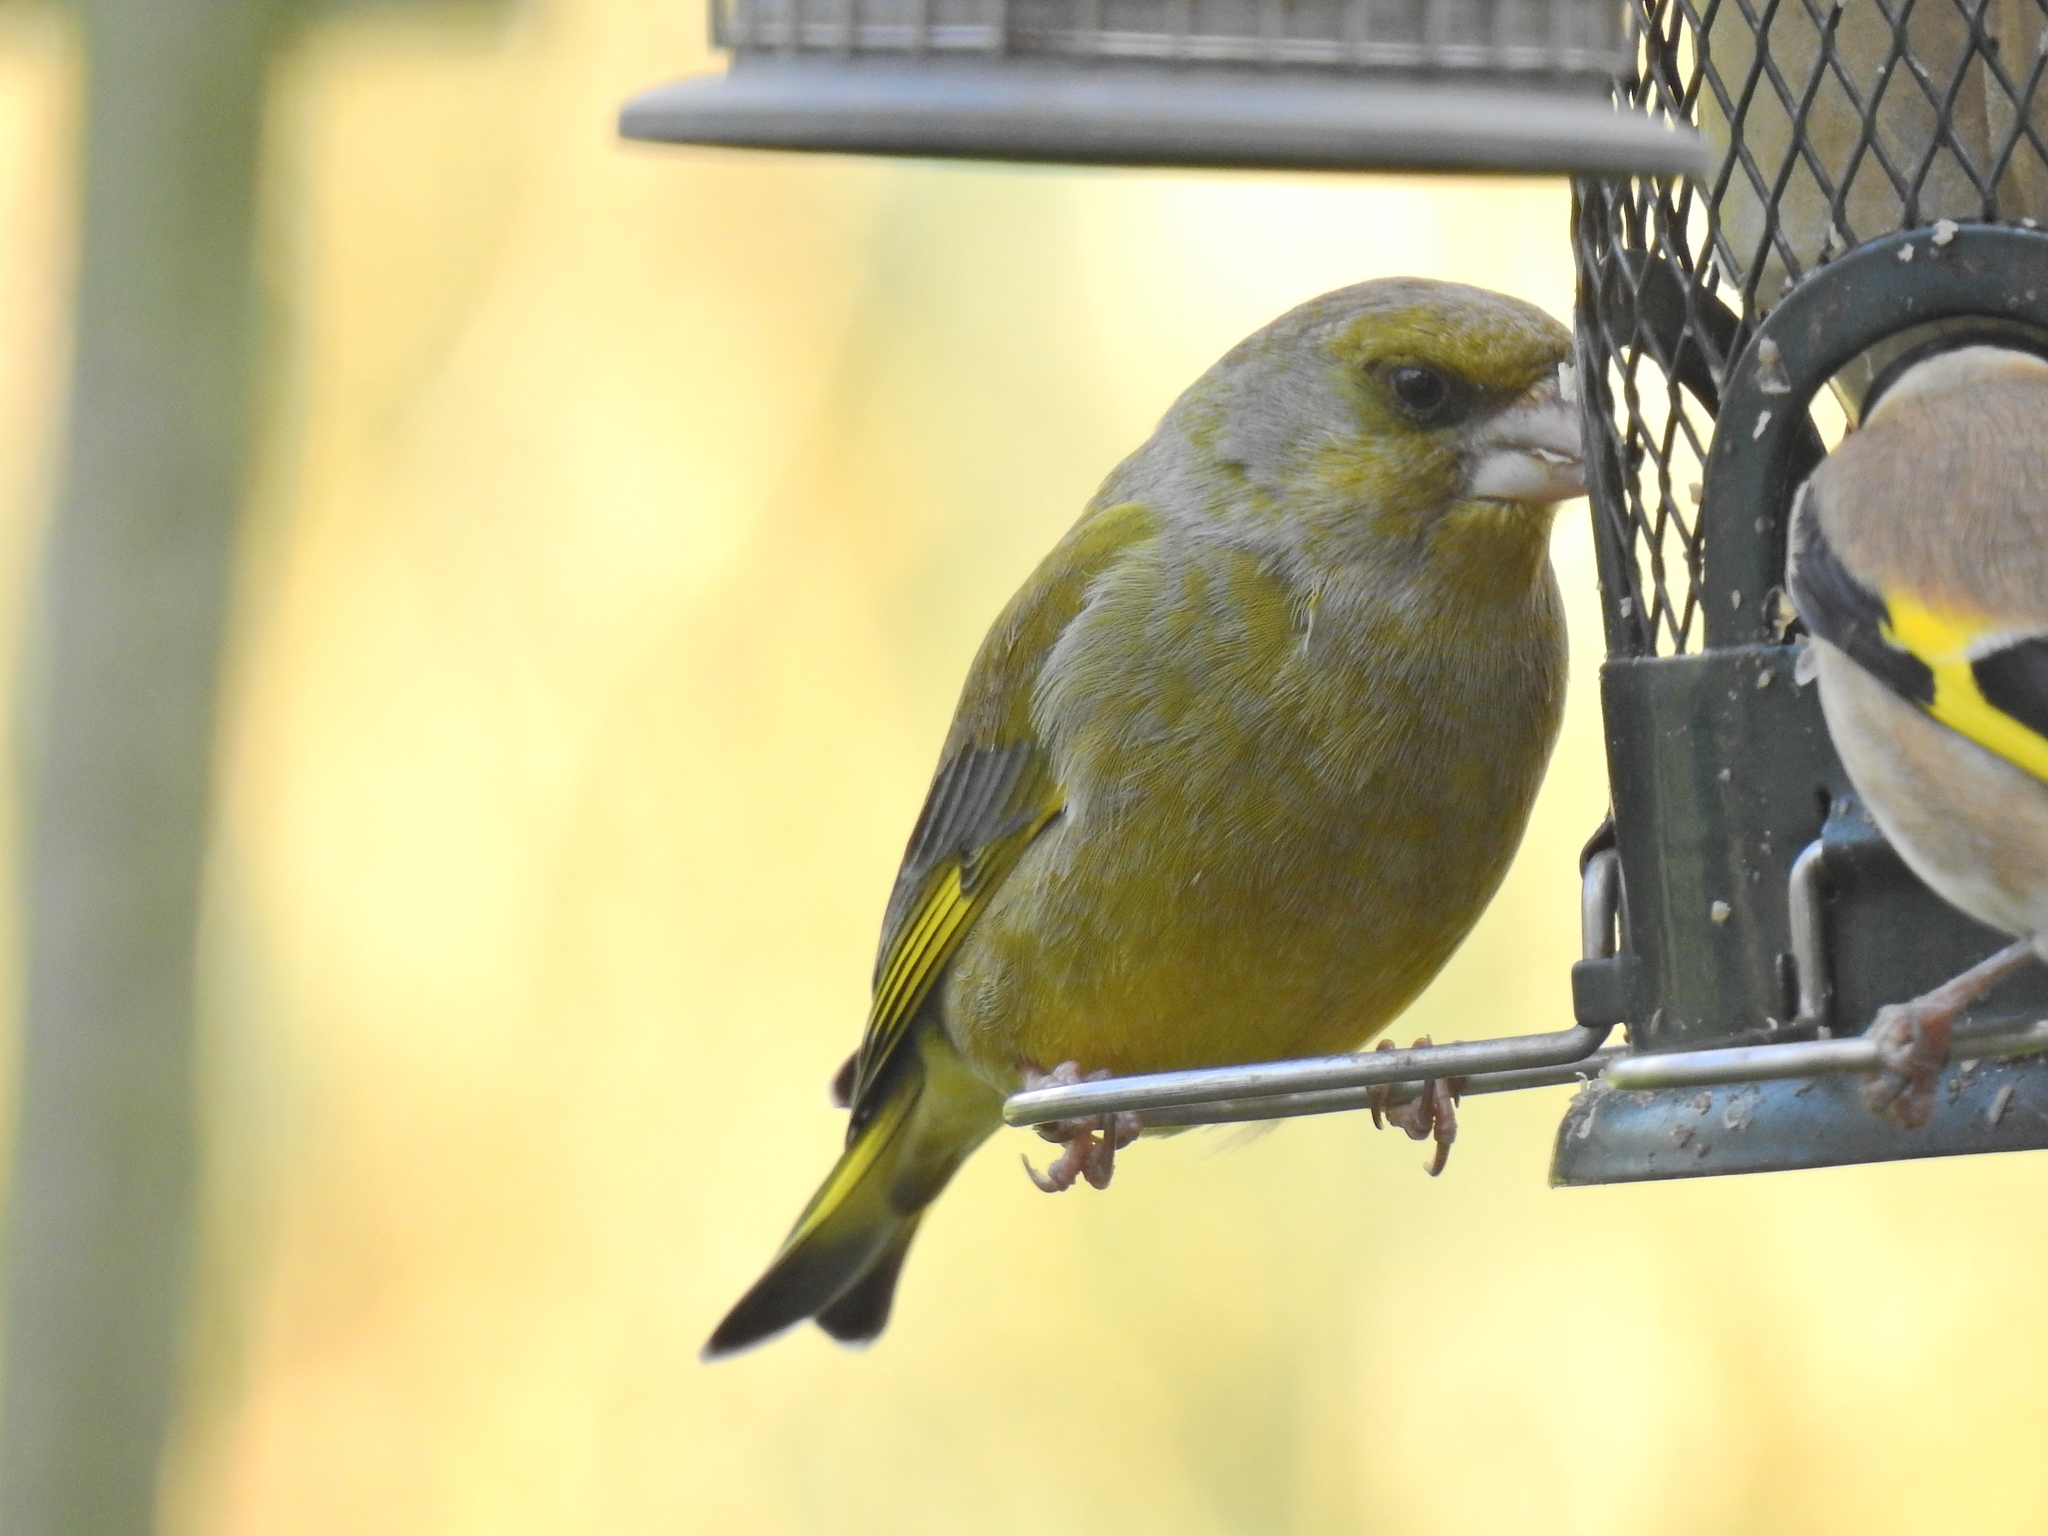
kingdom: Plantae
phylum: Tracheophyta
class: Liliopsida
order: Poales
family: Poaceae
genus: Chloris
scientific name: Chloris chloris
